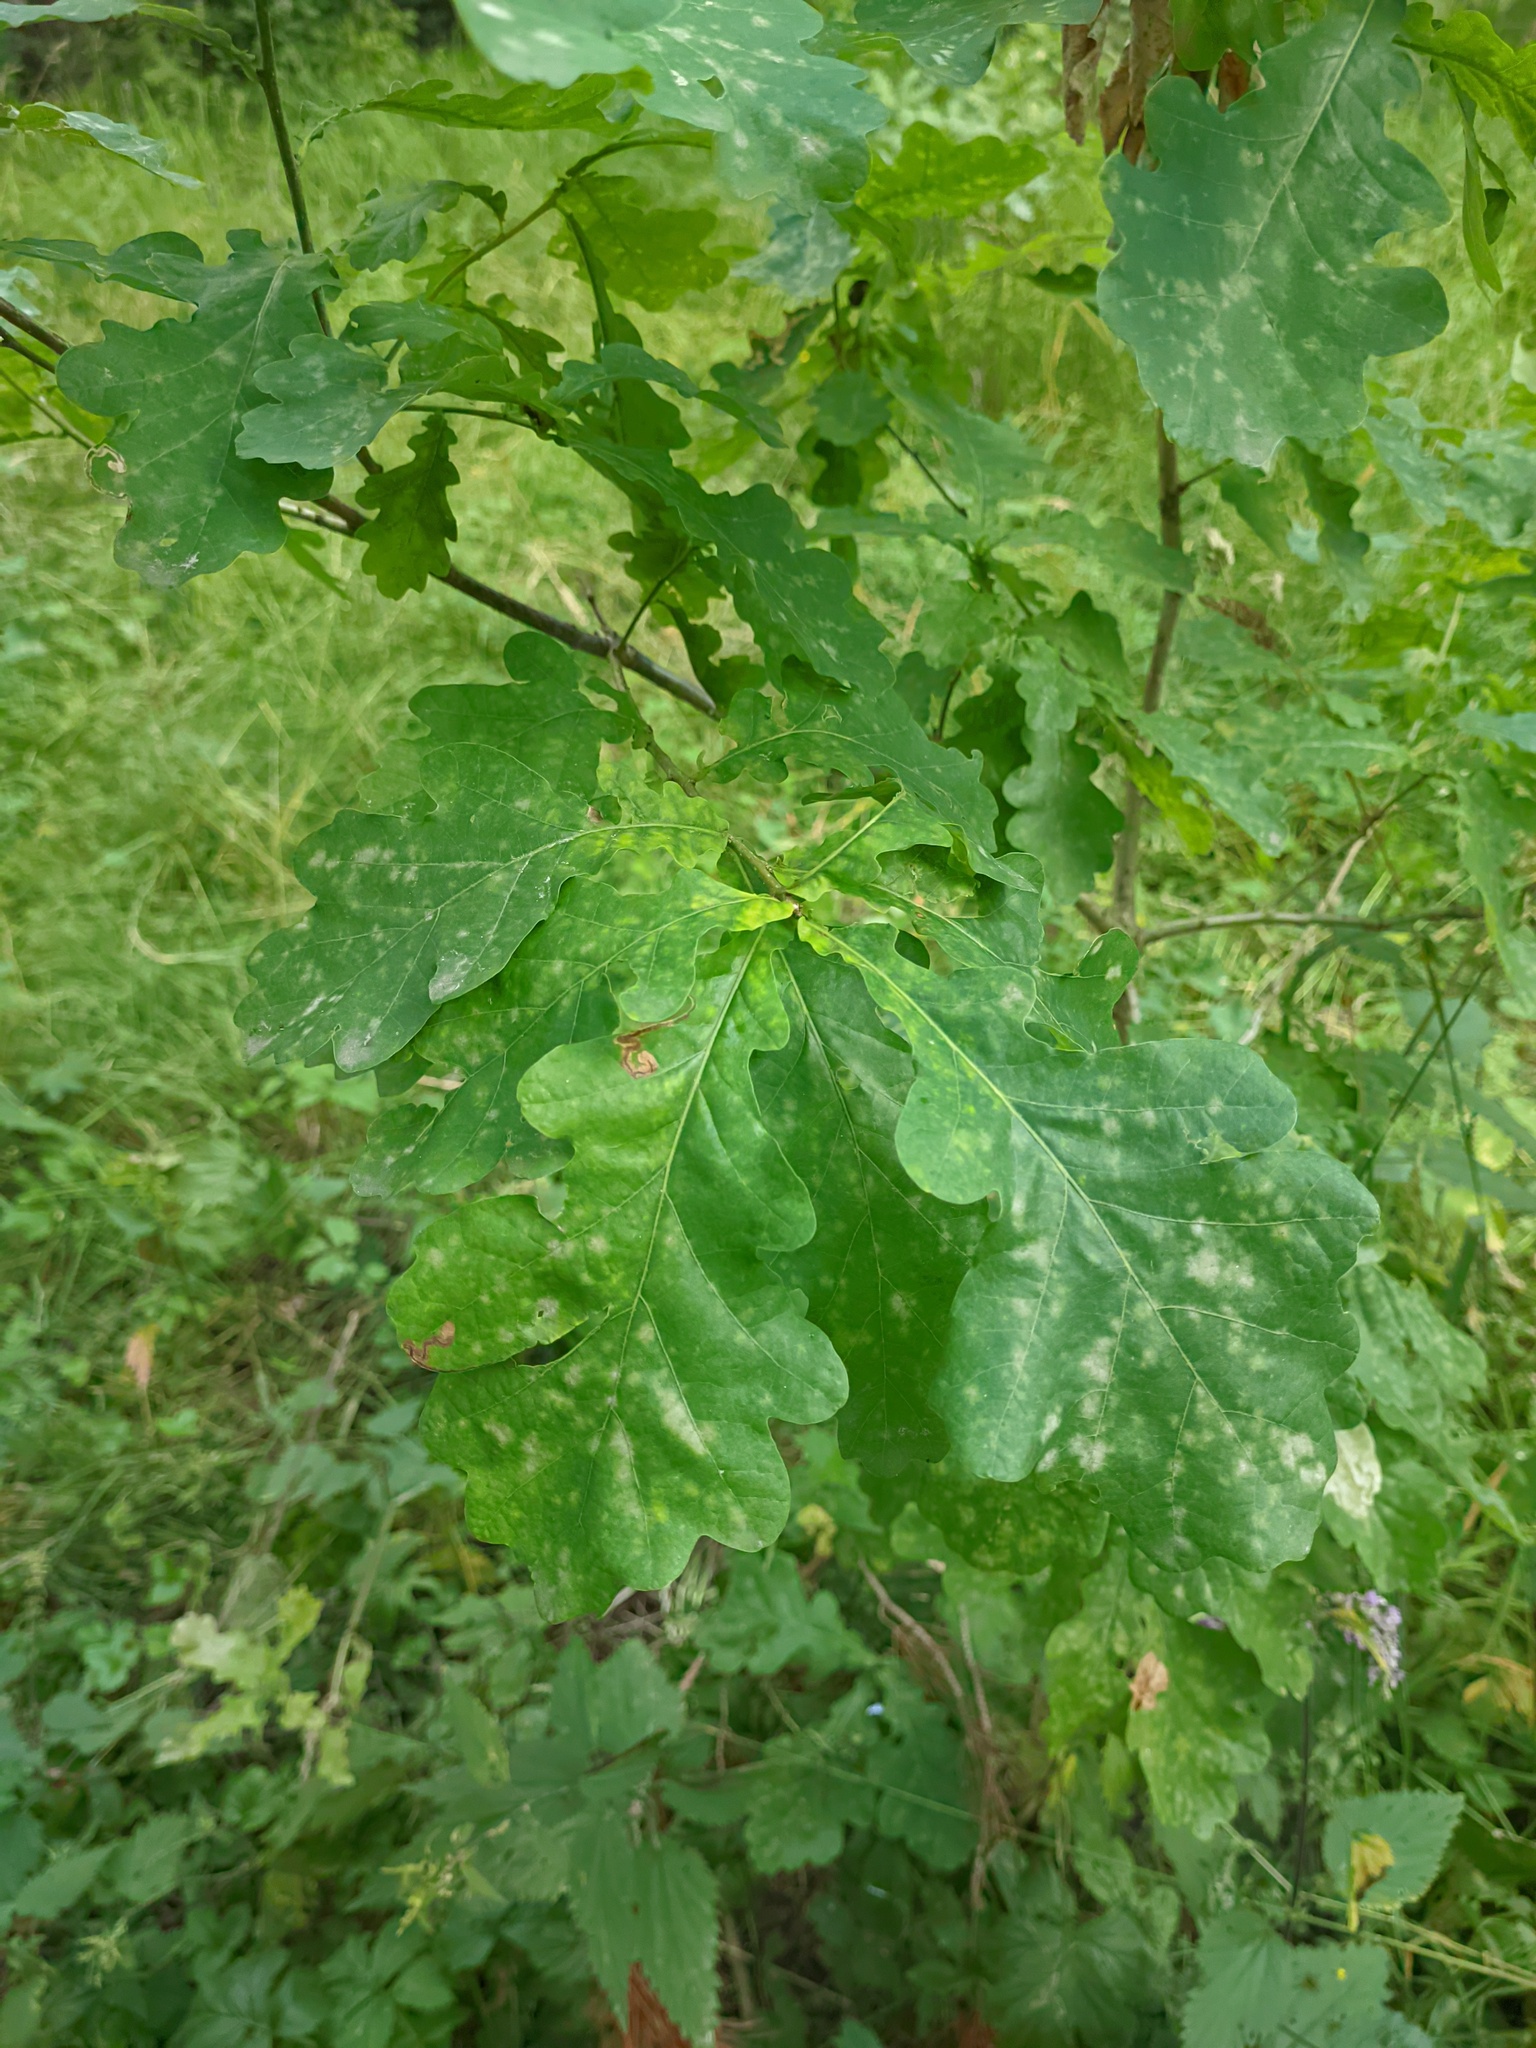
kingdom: Plantae
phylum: Tracheophyta
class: Magnoliopsida
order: Fagales
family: Fagaceae
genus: Quercus
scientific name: Quercus robur
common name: Pedunculate oak
